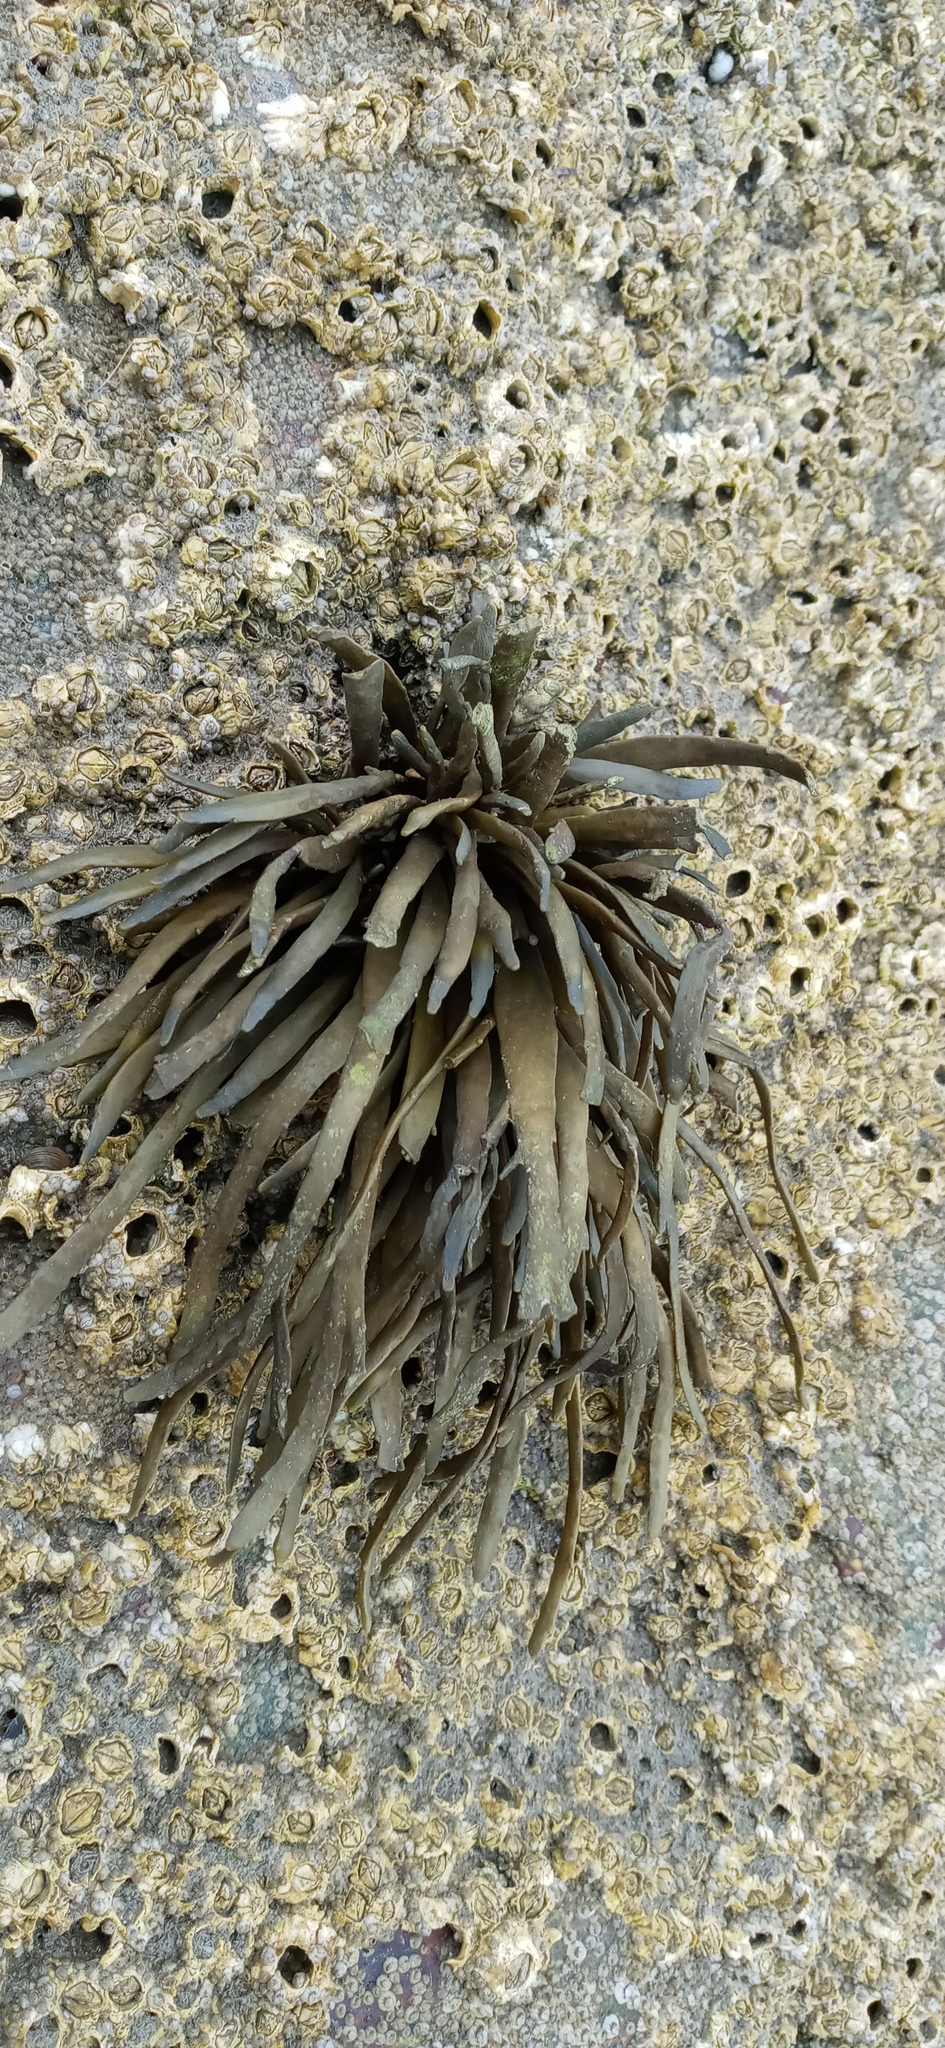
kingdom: Chromista
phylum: Ochrophyta
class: Phaeophyceae
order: Fucales
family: Fucaceae
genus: Ascophyllum
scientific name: Ascophyllum nodosum
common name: Knotted wrack
